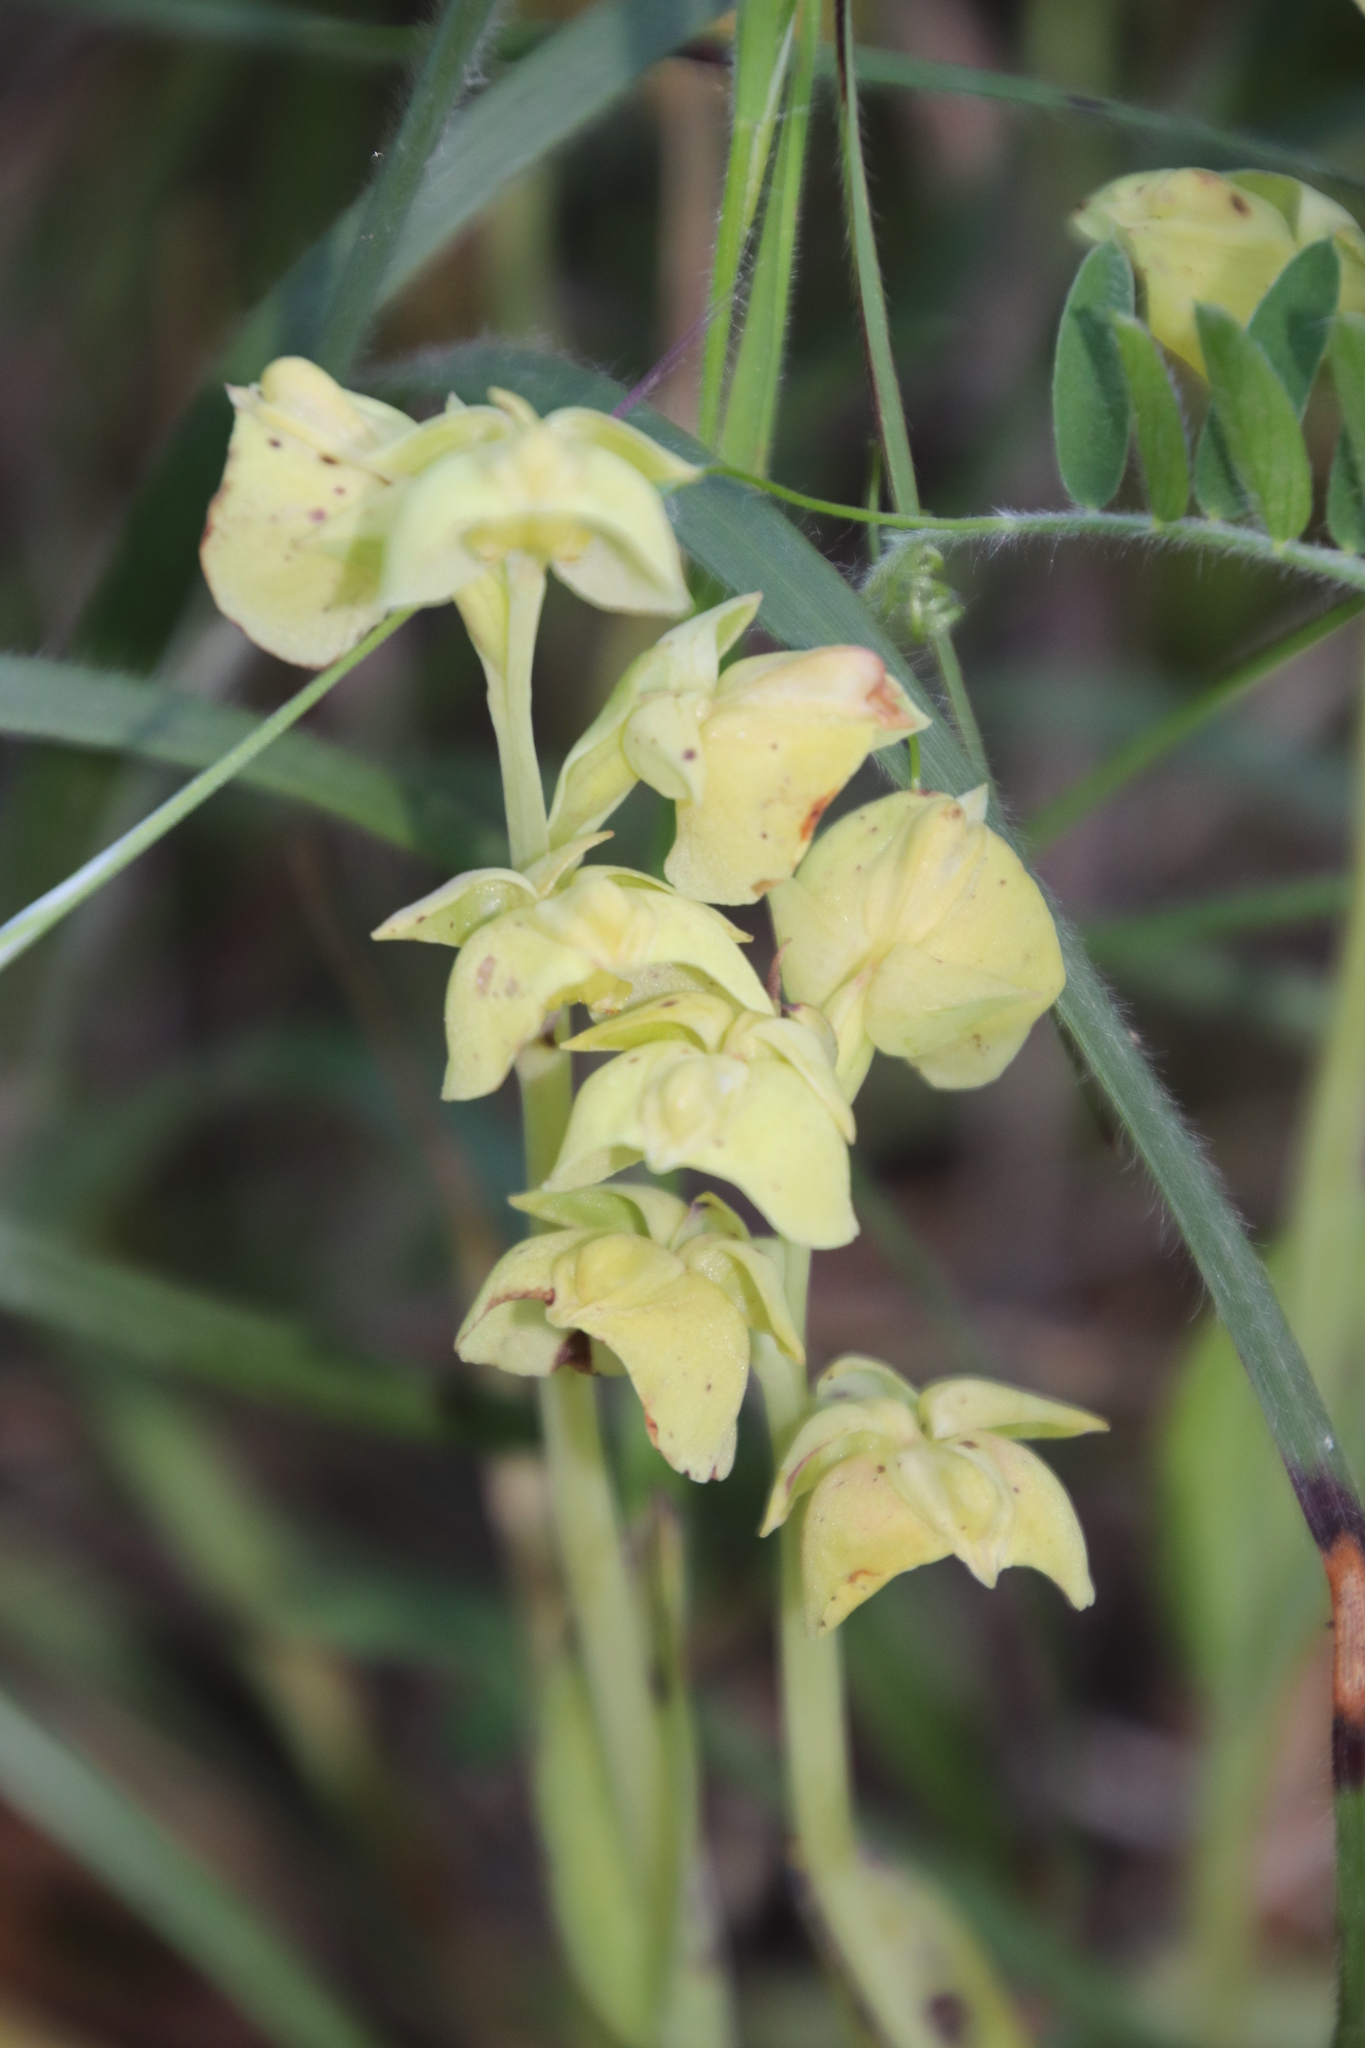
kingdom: Plantae
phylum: Tracheophyta
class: Liliopsida
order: Asparagales
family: Orchidaceae
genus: Pterygodium
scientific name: Pterygodium catholicum
